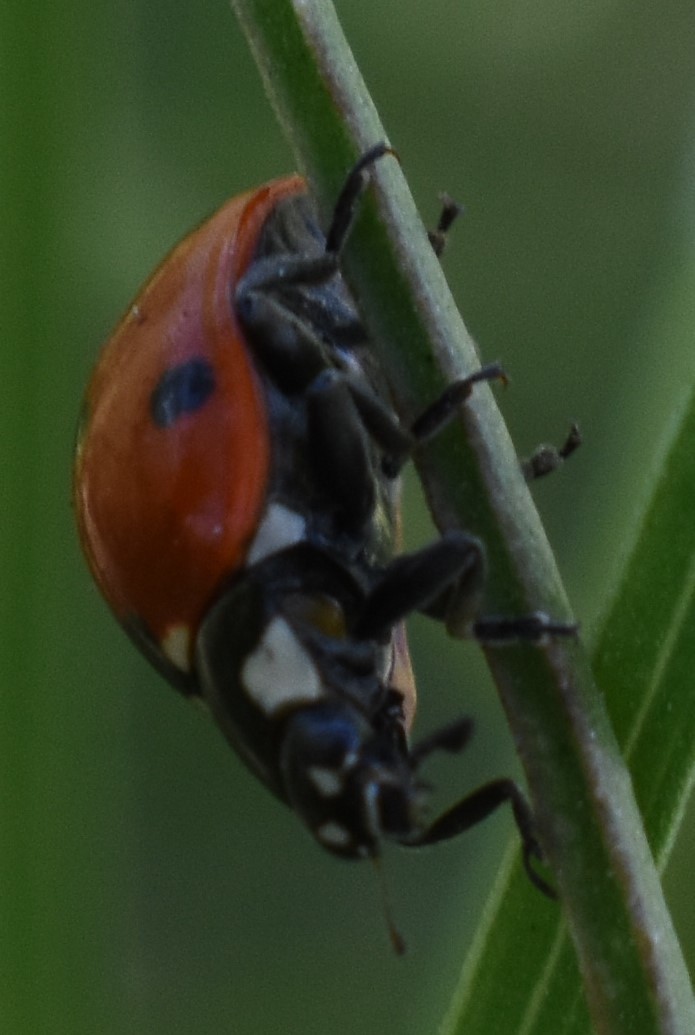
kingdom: Animalia
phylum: Arthropoda
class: Insecta
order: Coleoptera
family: Coccinellidae
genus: Coccinella
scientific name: Coccinella septempunctata
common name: Sevenspotted lady beetle
